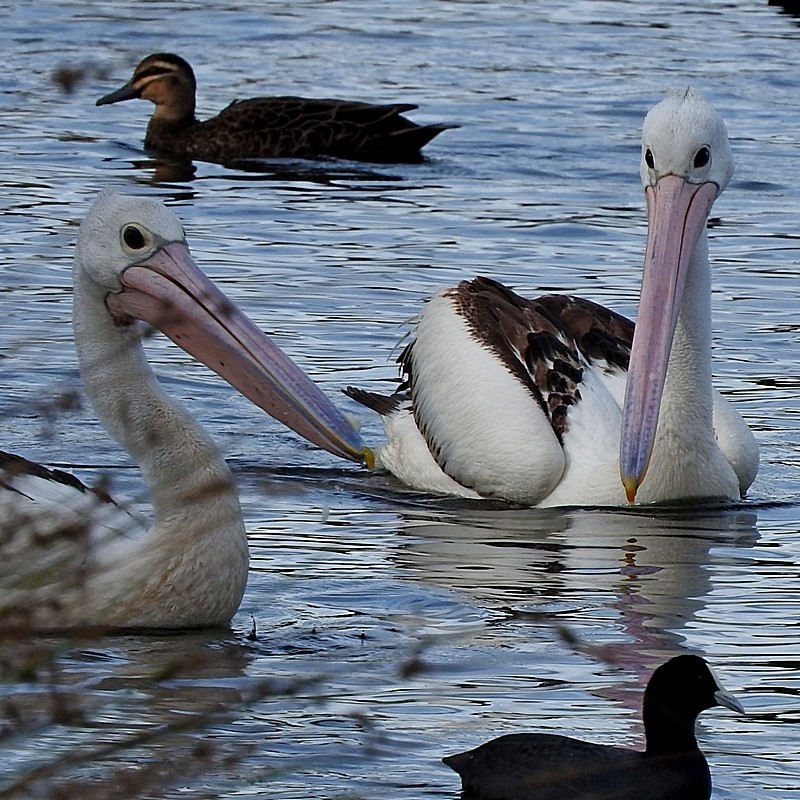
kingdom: Animalia
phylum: Chordata
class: Aves
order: Pelecaniformes
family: Pelecanidae
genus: Pelecanus
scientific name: Pelecanus conspicillatus
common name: Australian pelican
